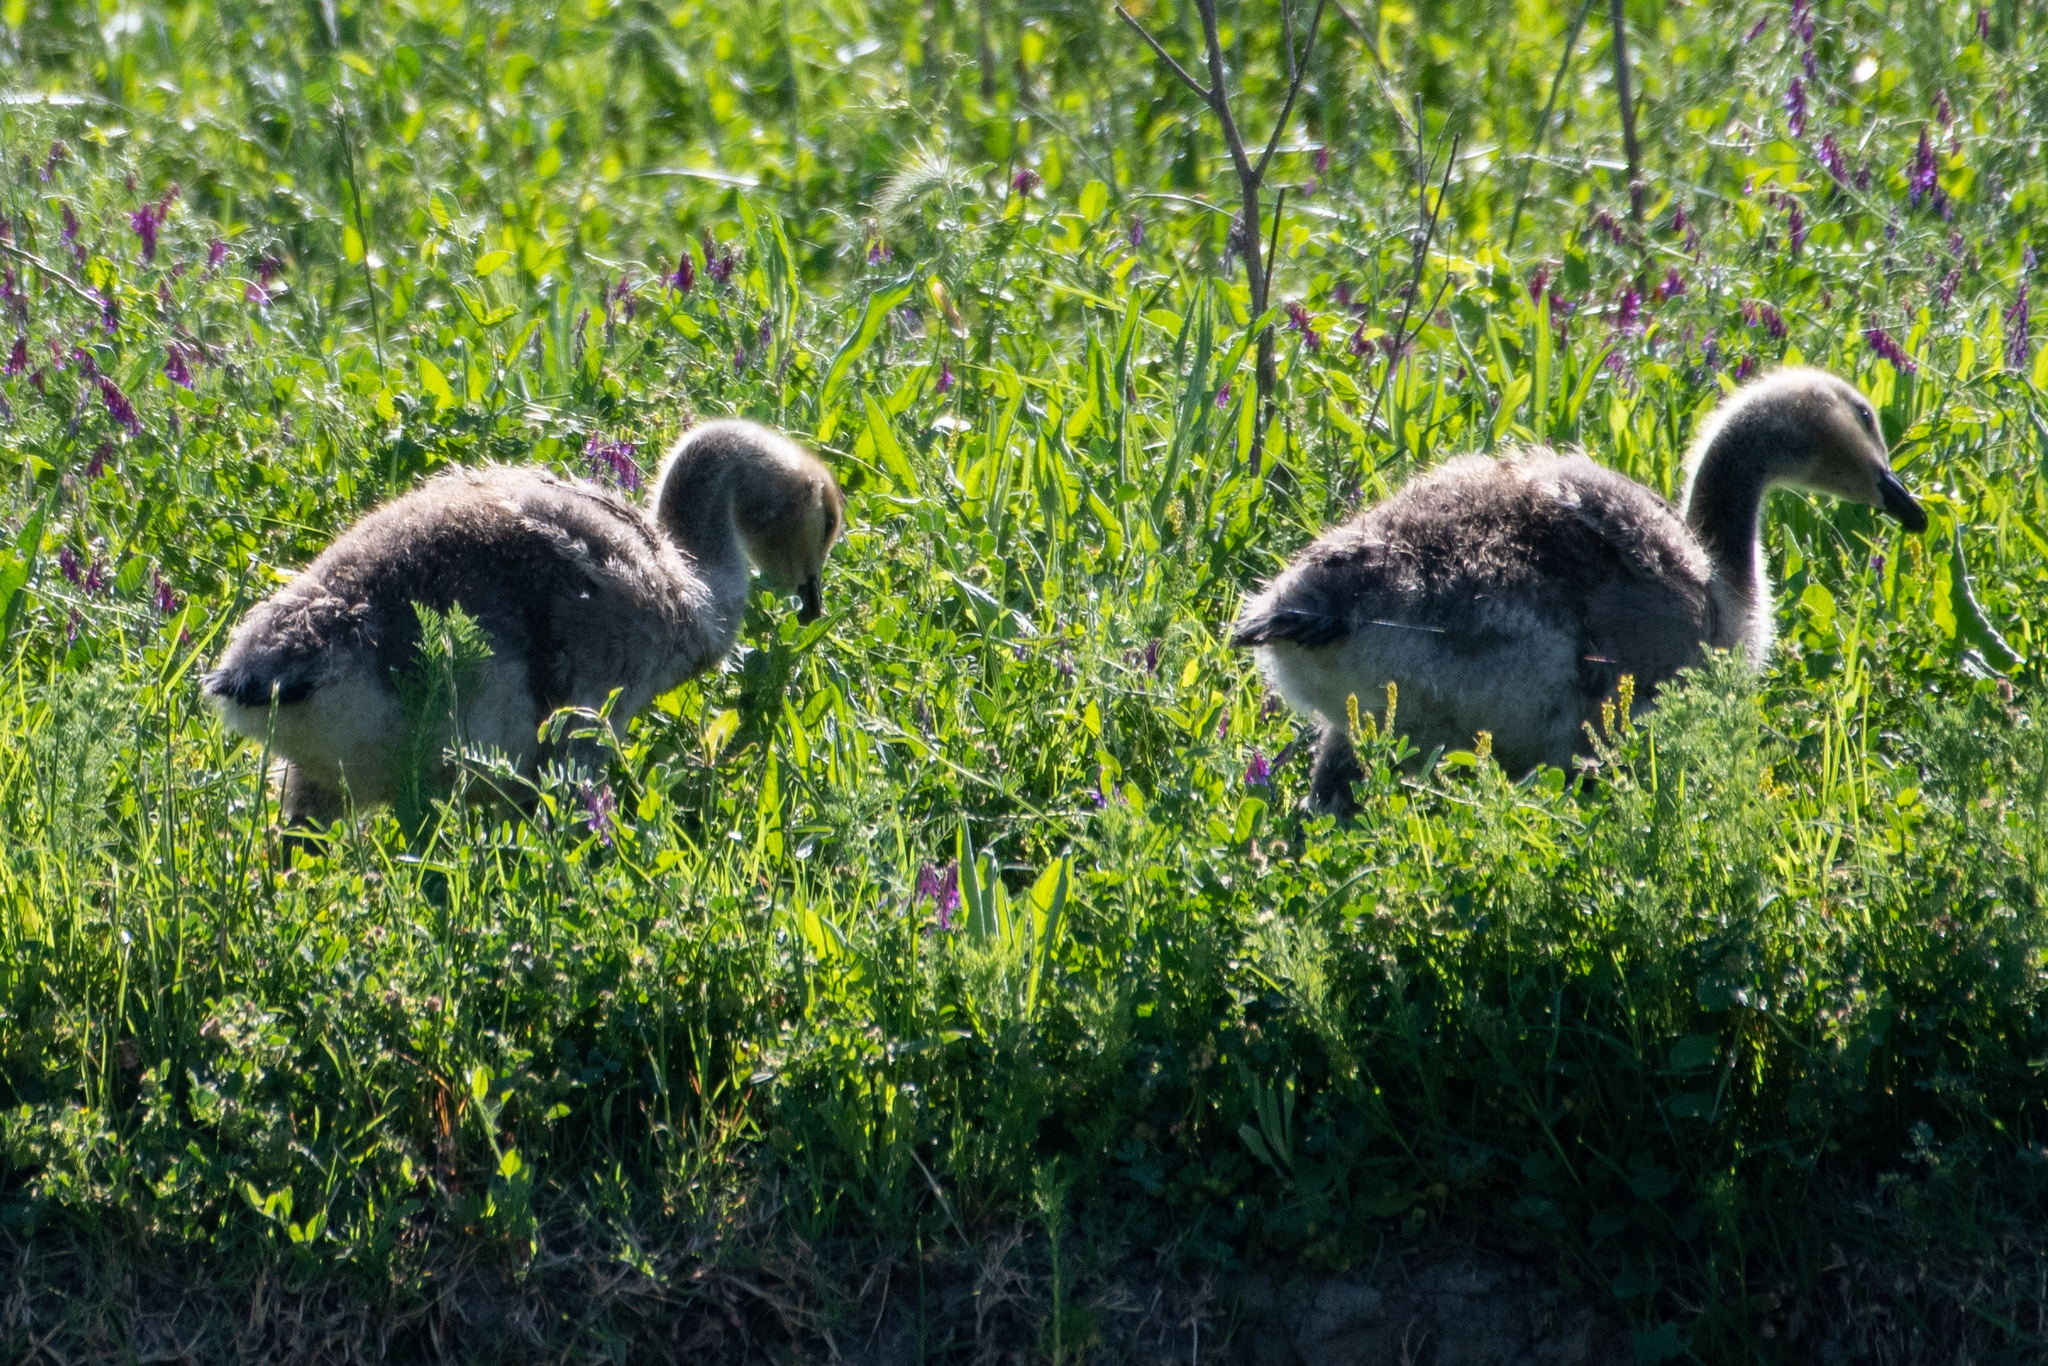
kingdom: Animalia
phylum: Chordata
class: Aves
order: Anseriformes
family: Anatidae
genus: Branta
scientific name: Branta canadensis
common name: Canada goose
